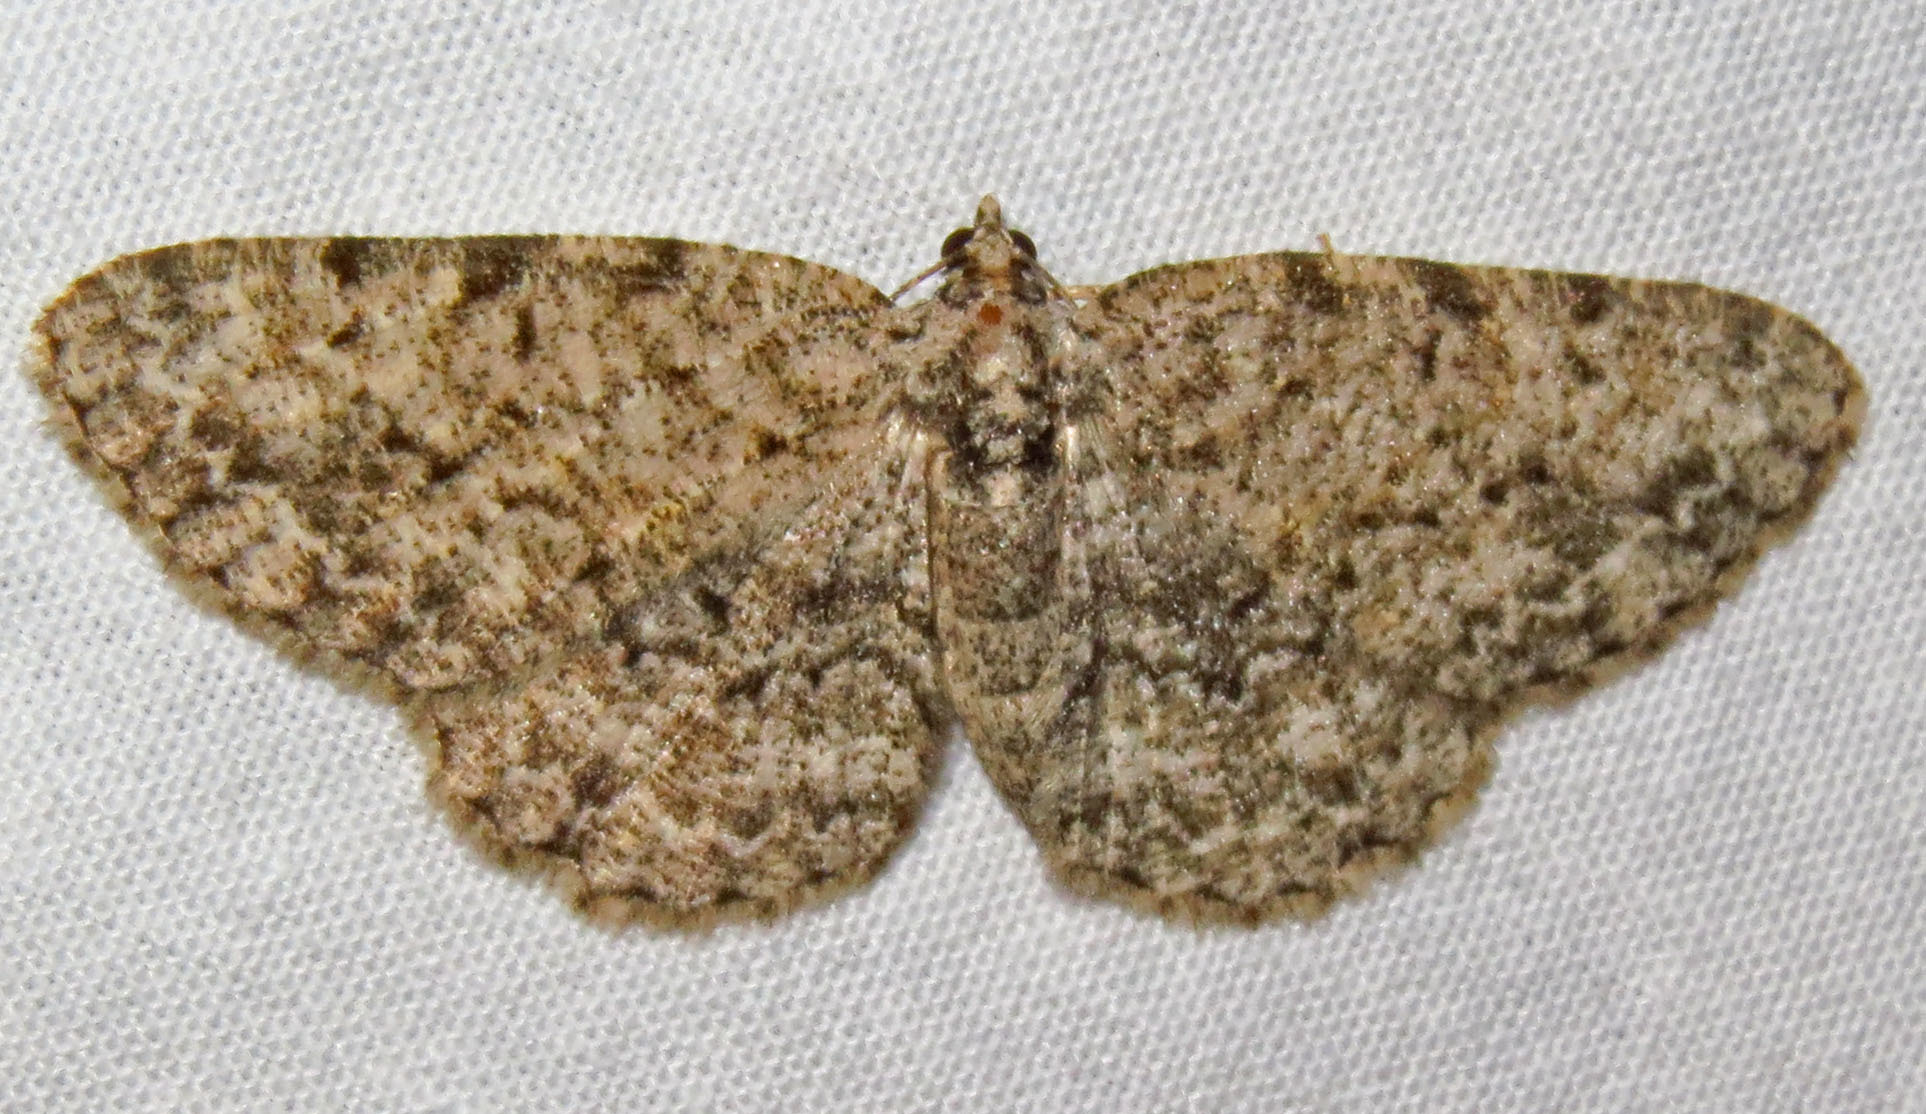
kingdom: Animalia
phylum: Arthropoda
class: Insecta
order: Lepidoptera
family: Geometridae
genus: Protoboarmia
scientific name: Protoboarmia porcelaria
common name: Porcelain gray
